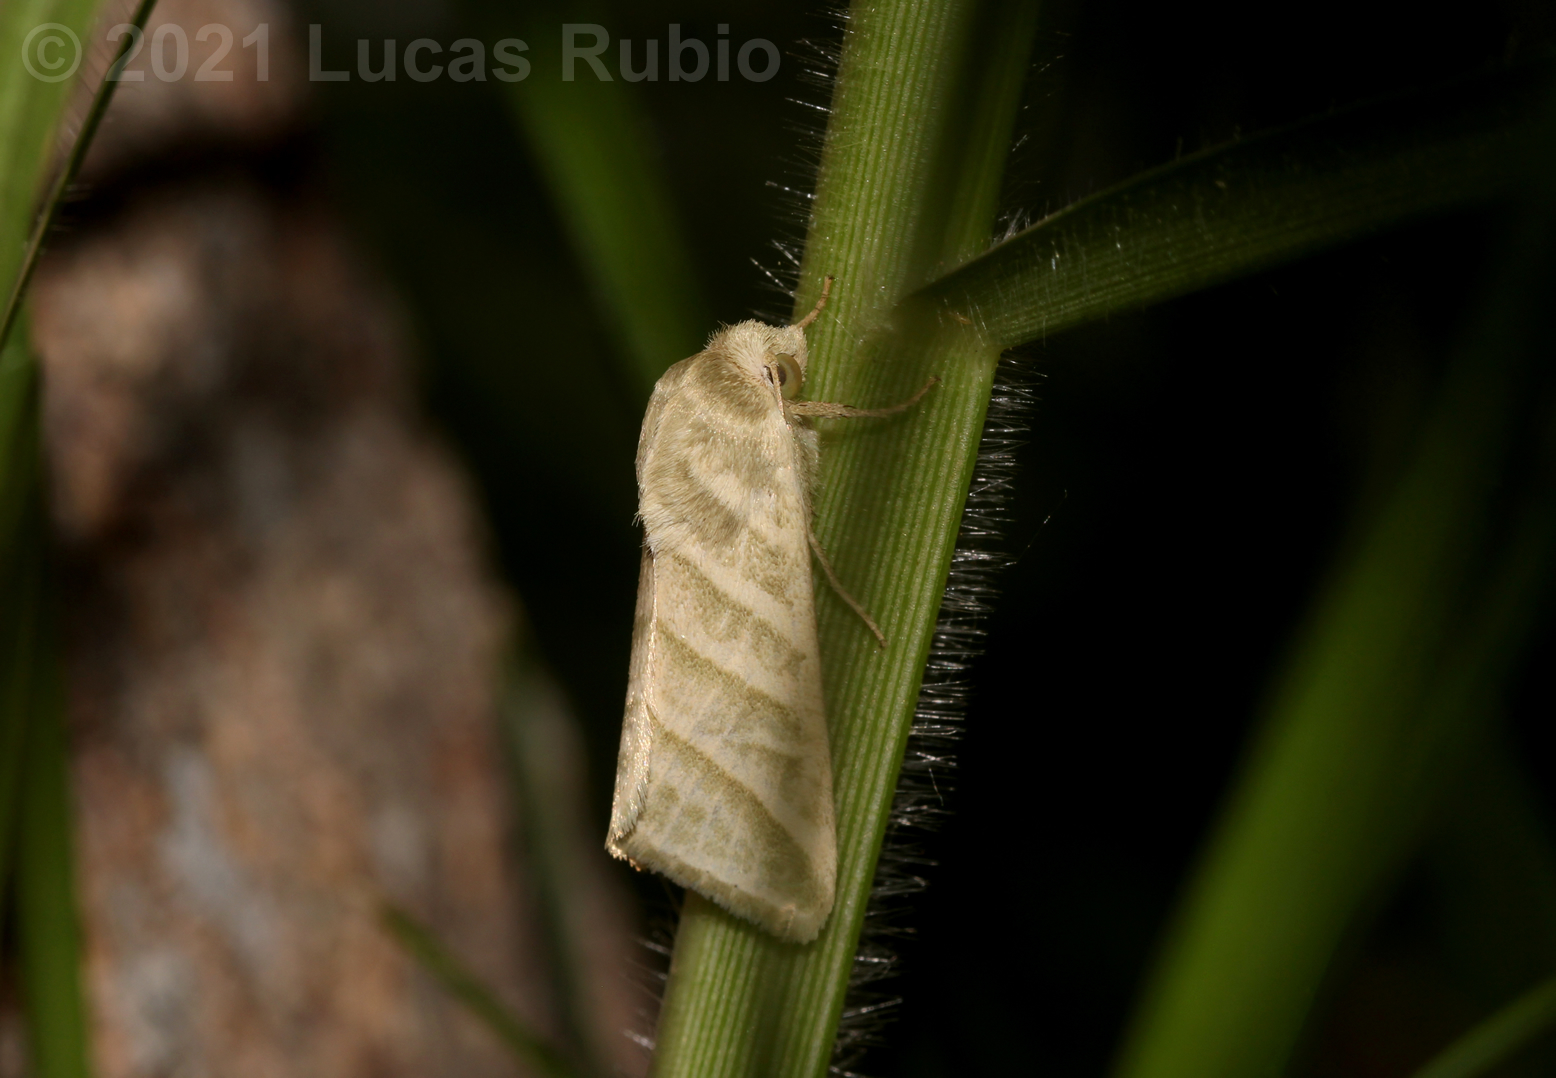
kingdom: Animalia
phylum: Arthropoda
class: Insecta
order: Lepidoptera
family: Noctuidae
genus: Chloridea
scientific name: Chloridea virescens
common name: Tobacco budworm
